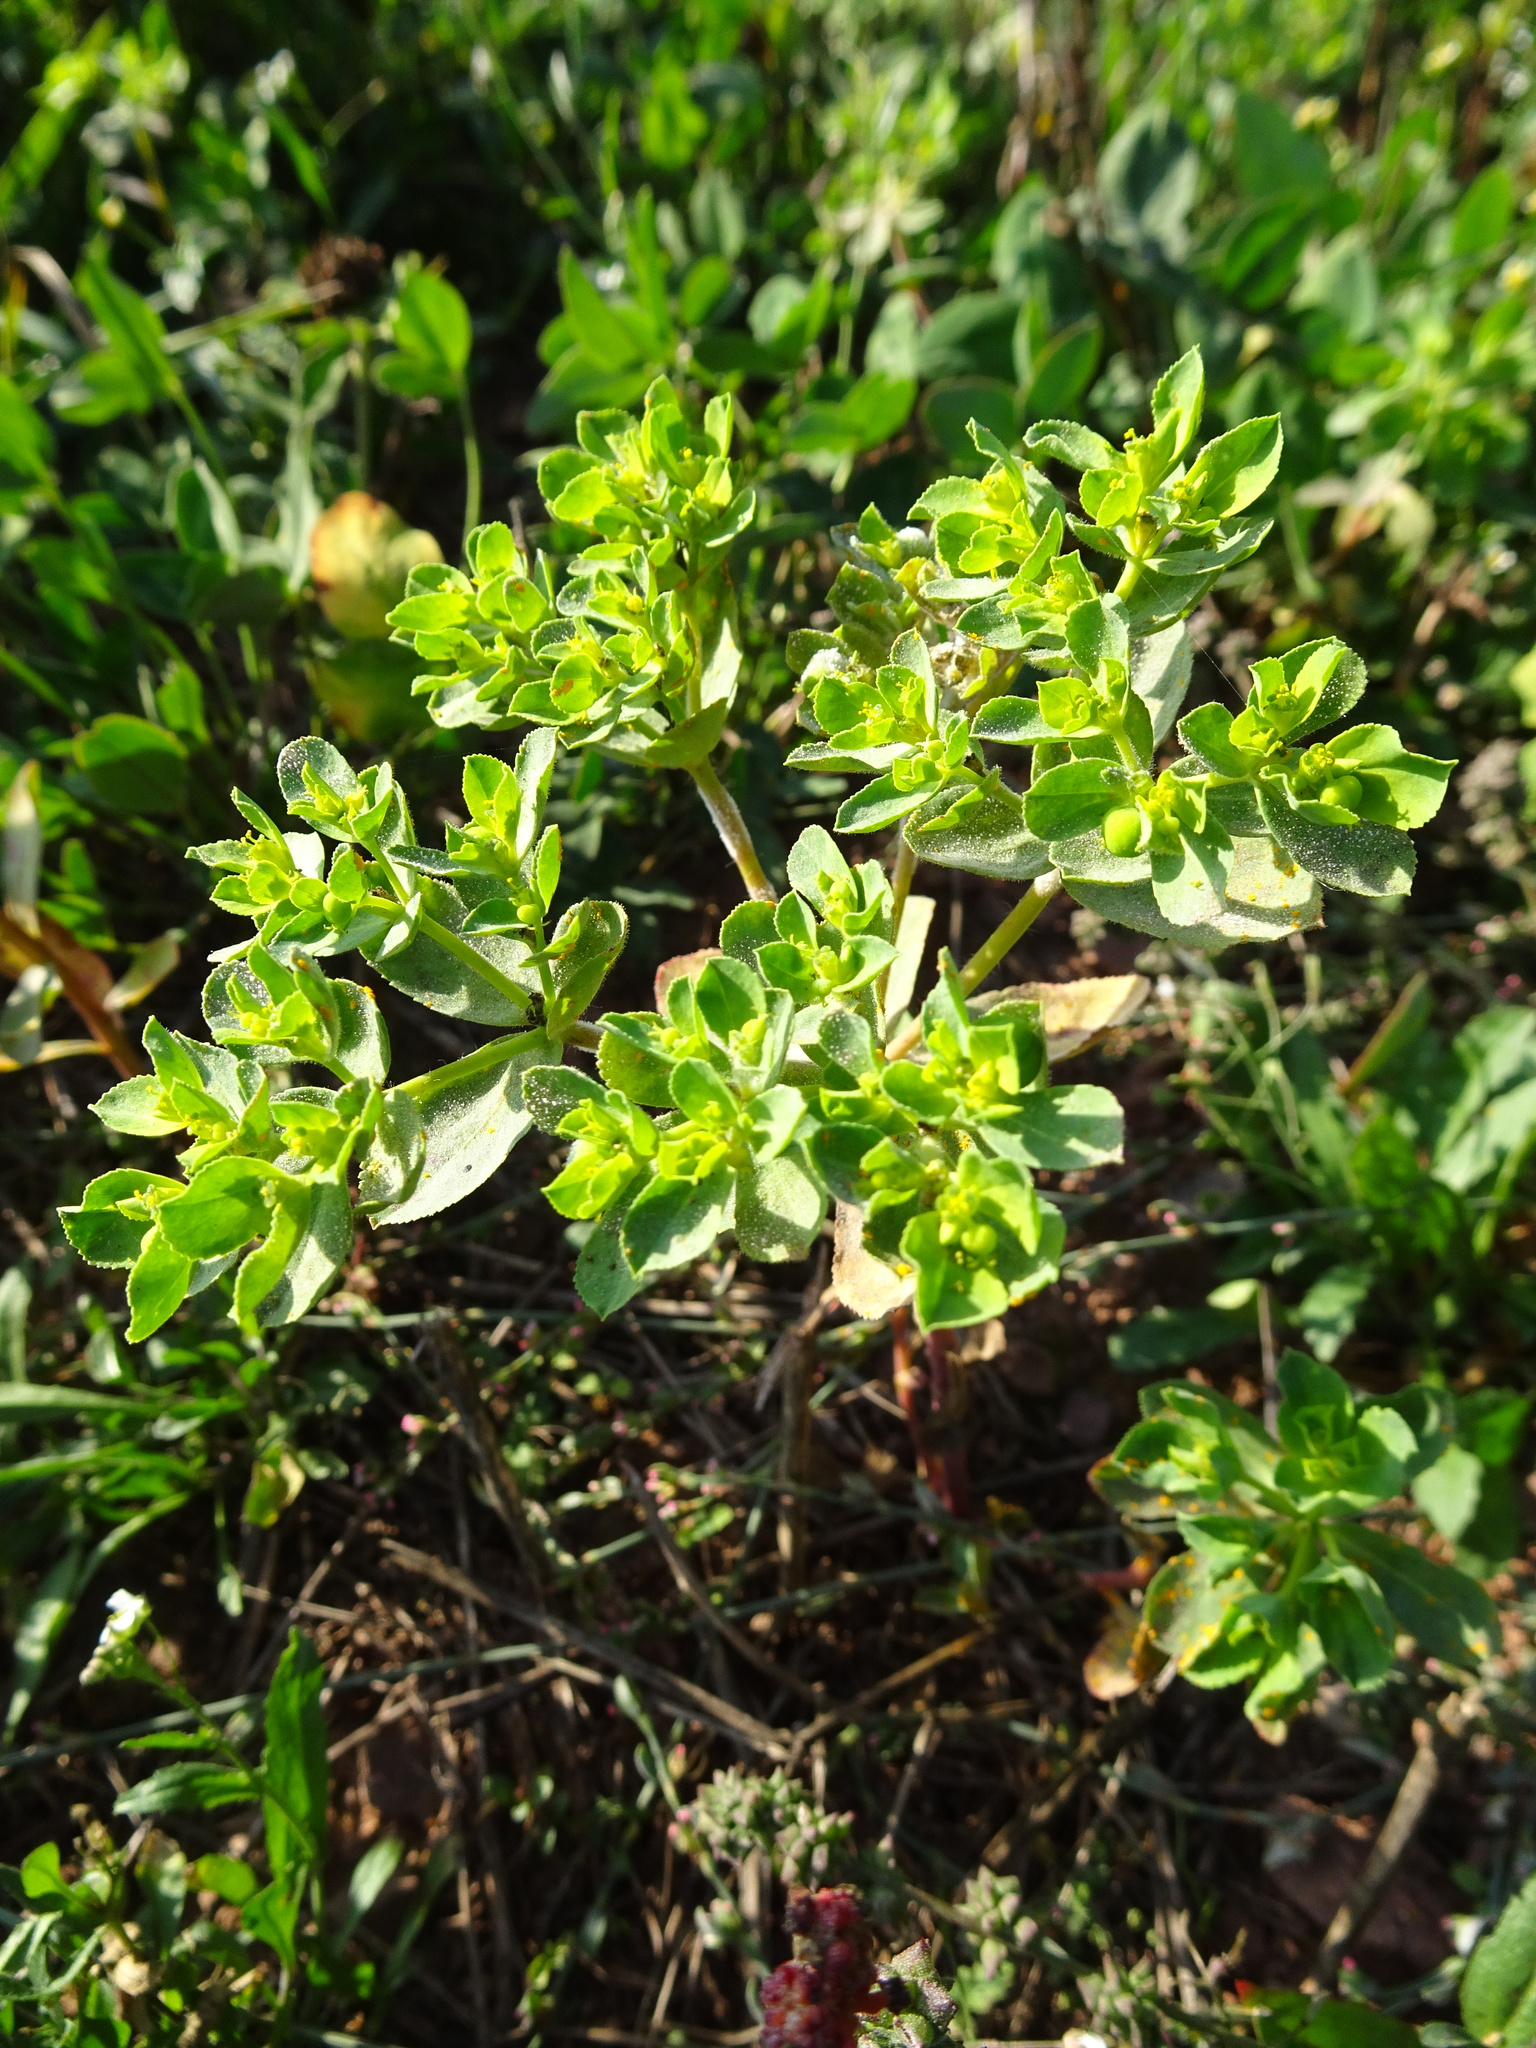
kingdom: Plantae
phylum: Tracheophyta
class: Magnoliopsida
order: Malpighiales
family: Euphorbiaceae
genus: Euphorbia
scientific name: Euphorbia helioscopia
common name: Sun spurge
